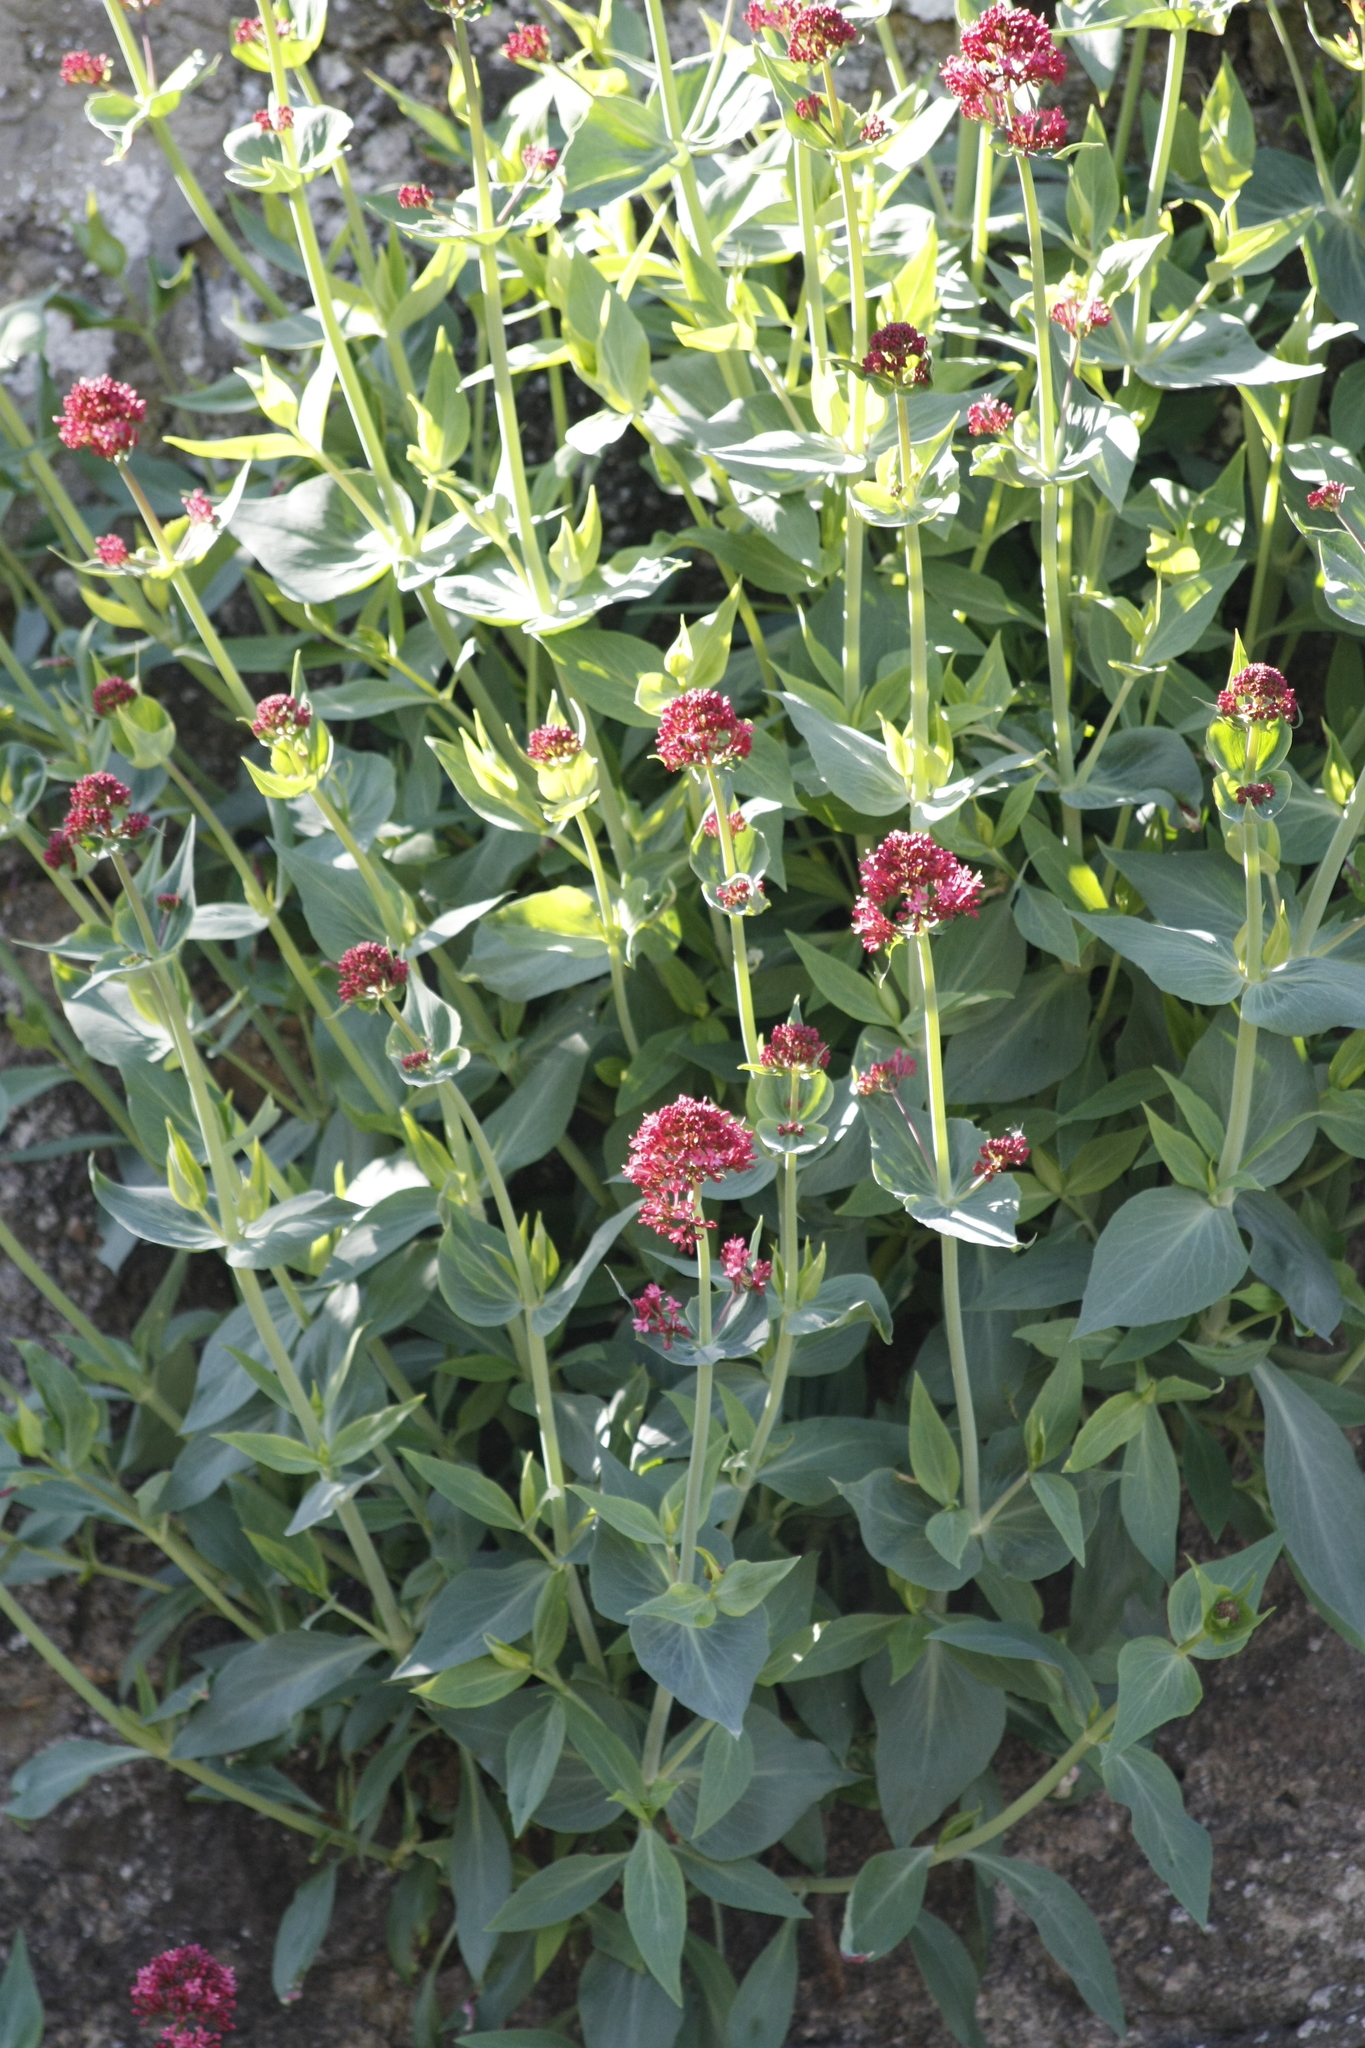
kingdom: Plantae
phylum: Tracheophyta
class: Magnoliopsida
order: Dipsacales
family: Caprifoliaceae
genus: Centranthus
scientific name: Centranthus ruber
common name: Red valerian
